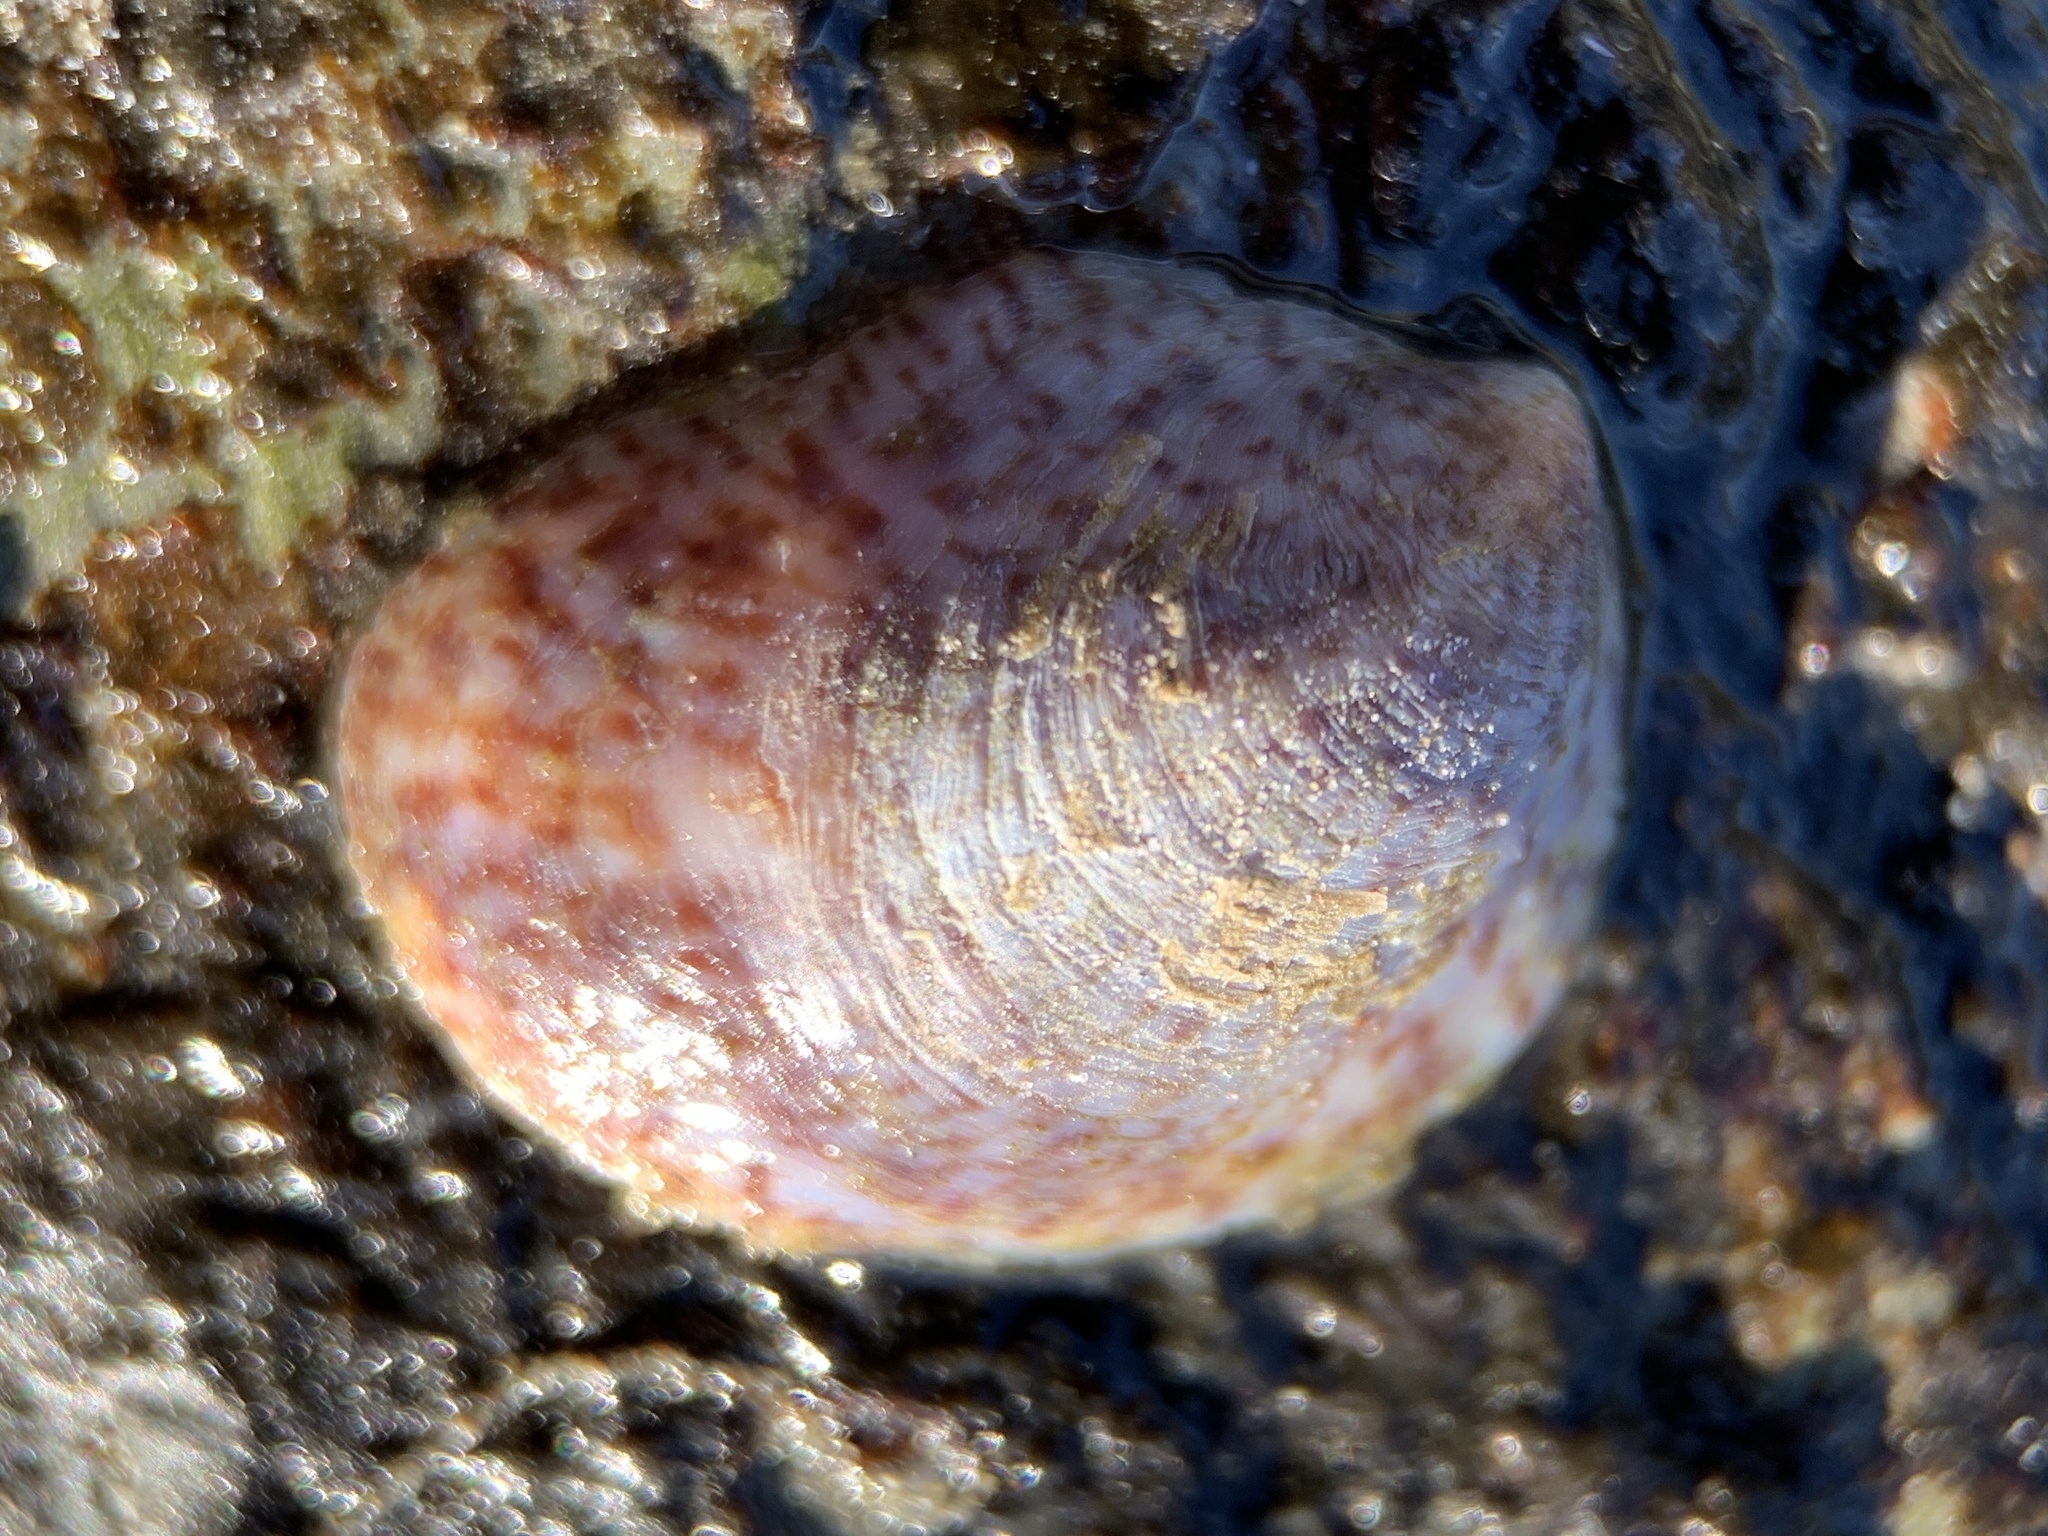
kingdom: Animalia
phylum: Mollusca
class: Gastropoda
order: Littorinimorpha
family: Calyptraeidae
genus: Crepidula
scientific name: Crepidula fornicata
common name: Slipper limpet
